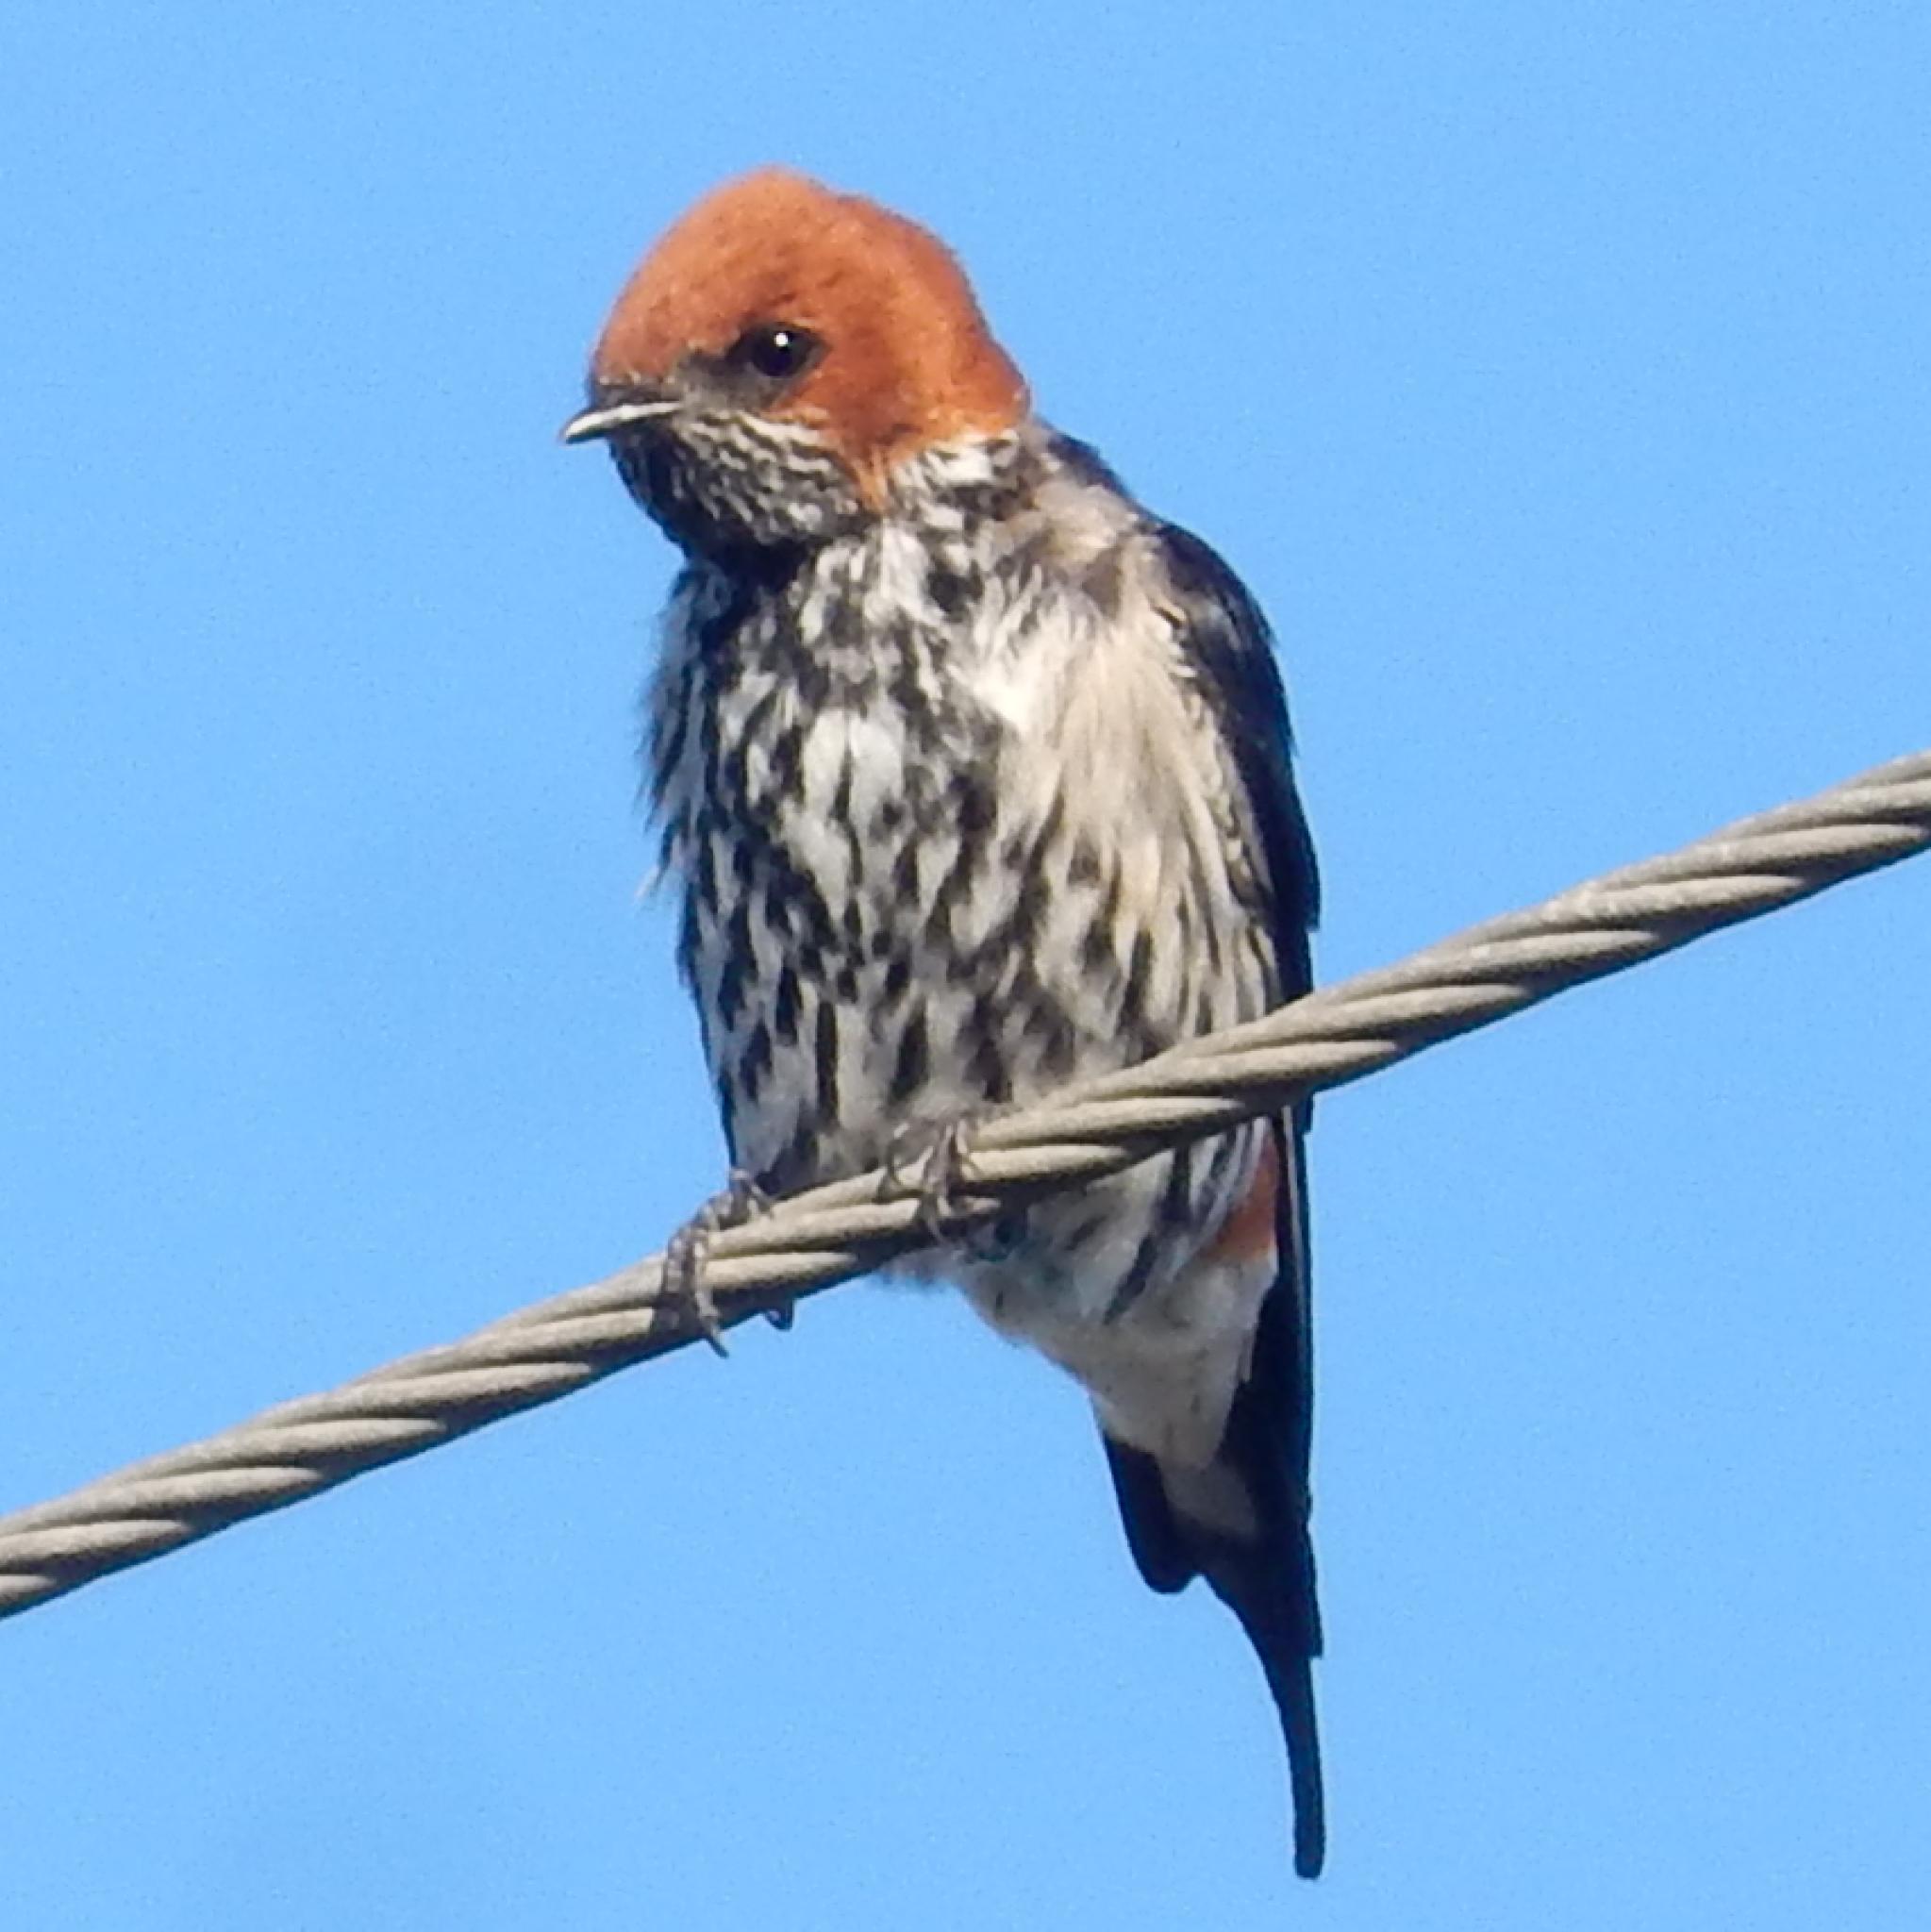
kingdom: Animalia
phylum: Chordata
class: Aves
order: Passeriformes
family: Hirundinidae
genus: Cecropis
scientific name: Cecropis abyssinica
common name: Lesser striped-swallow
